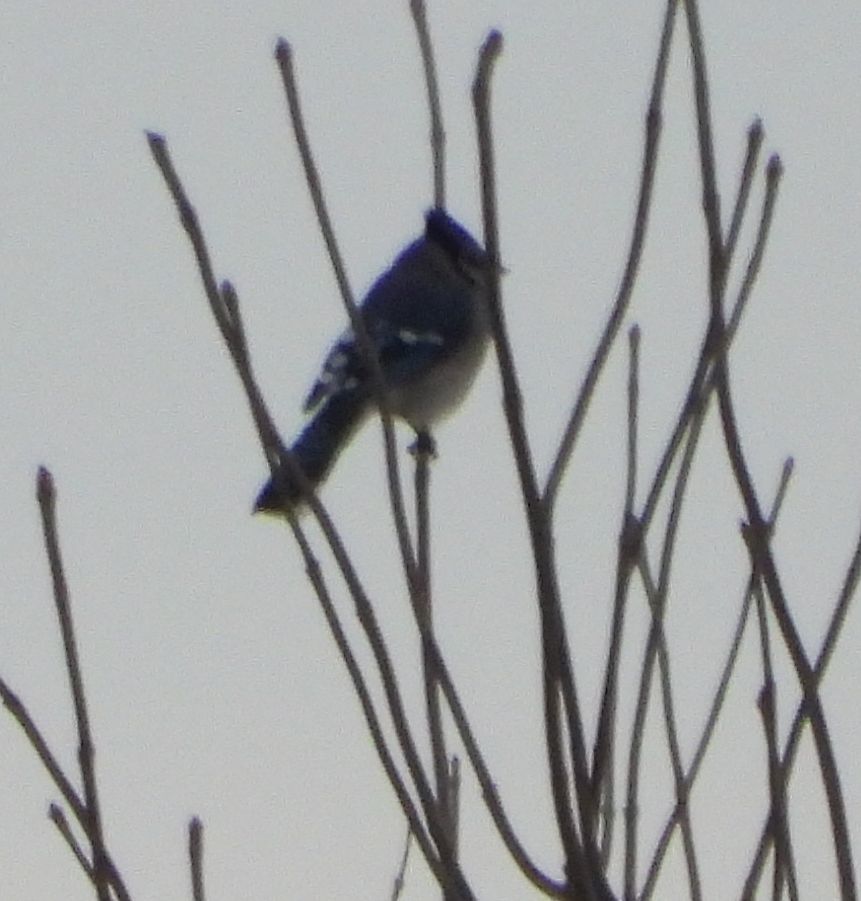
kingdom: Animalia
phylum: Chordata
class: Aves
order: Passeriformes
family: Corvidae
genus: Cyanocitta
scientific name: Cyanocitta cristata
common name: Blue jay
